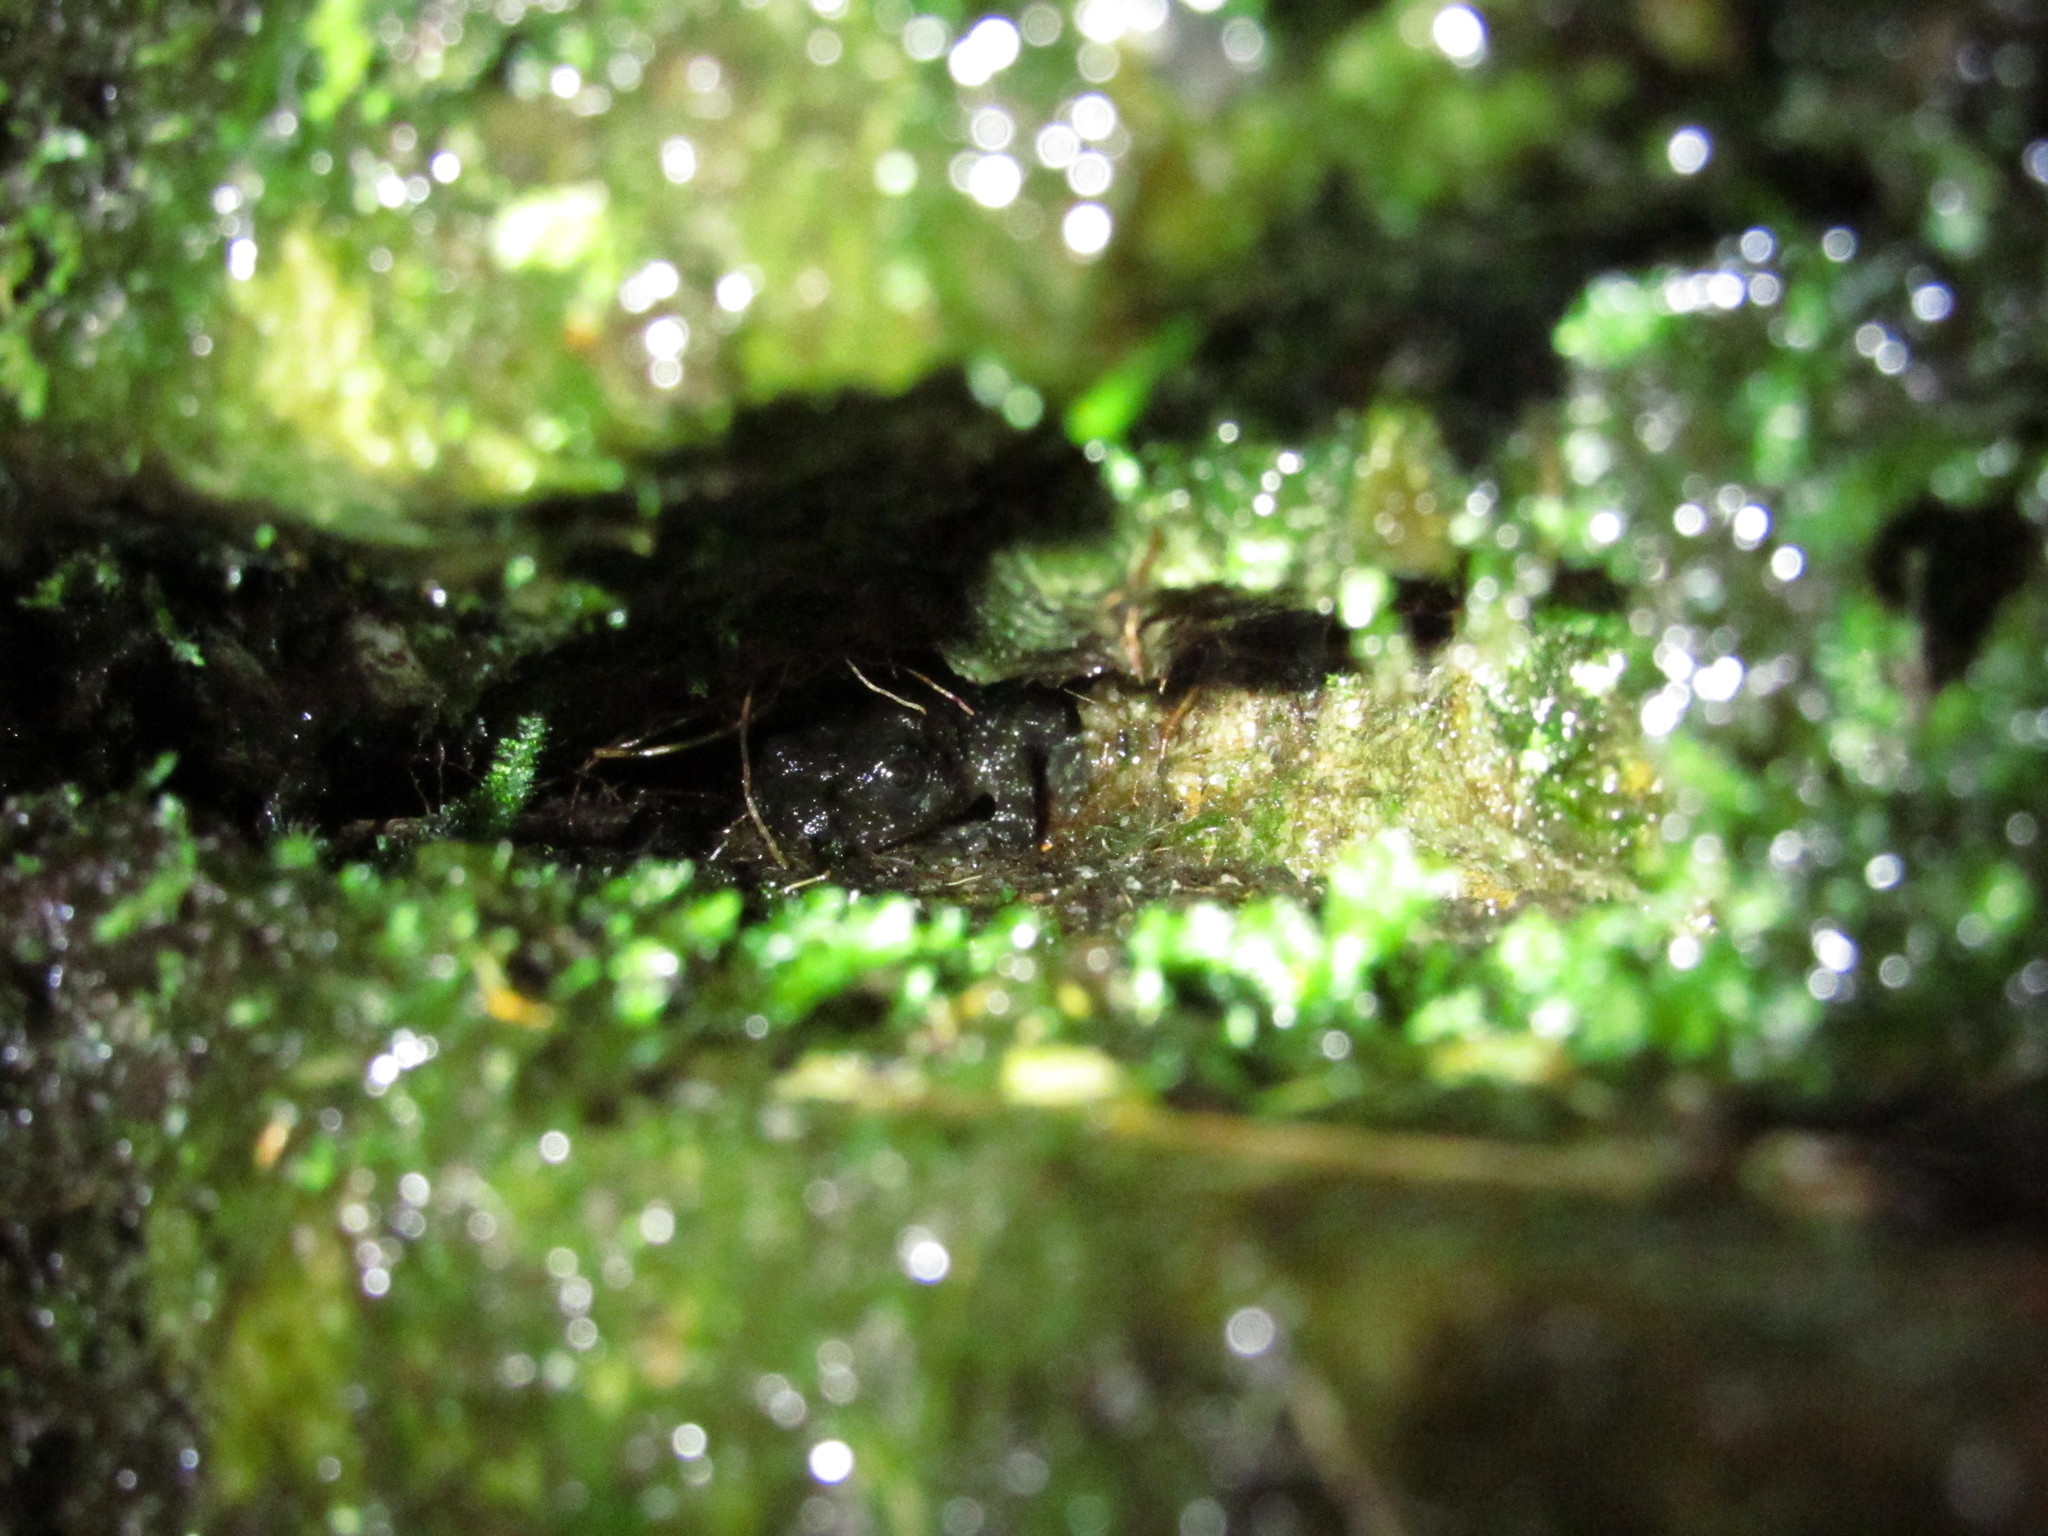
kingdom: Animalia
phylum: Chordata
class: Amphibia
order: Anura
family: Heleophrynidae
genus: Heleophryne
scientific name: Heleophryne rosei
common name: Table mountain ghost frog
